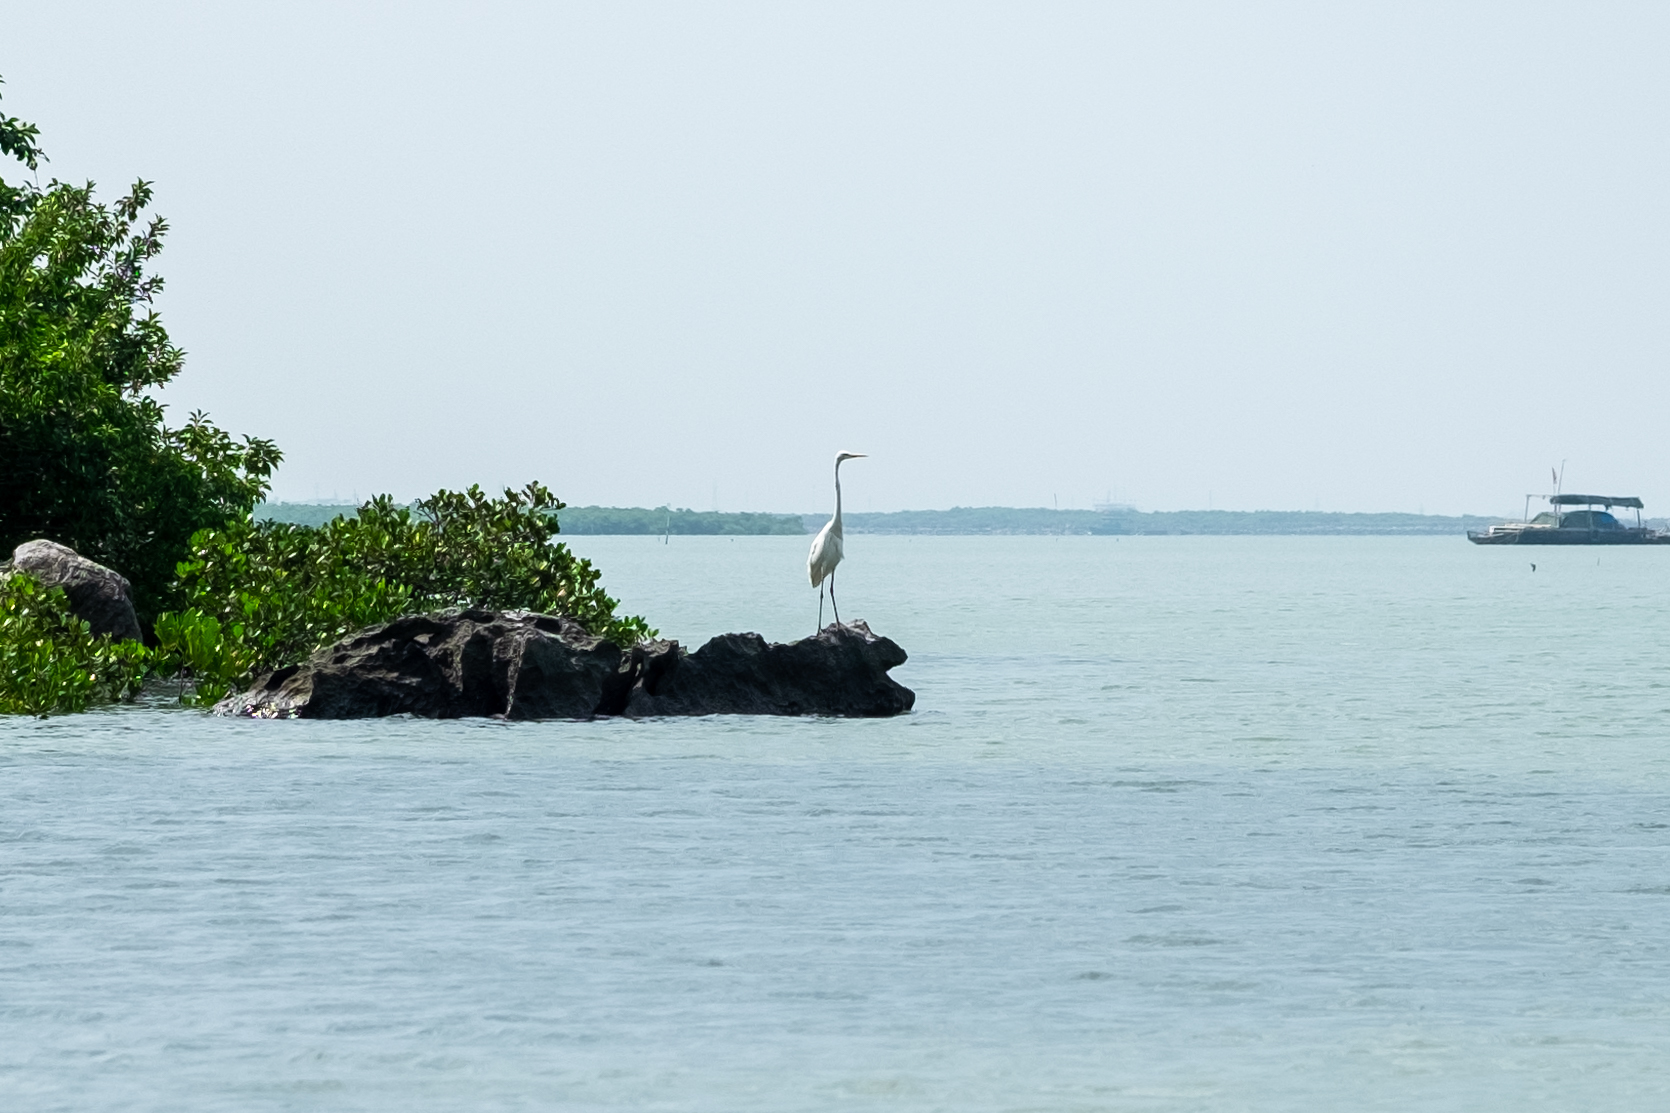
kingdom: Animalia
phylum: Chordata
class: Aves
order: Pelecaniformes
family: Ardeidae
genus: Ardea
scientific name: Ardea alba
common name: Great egret
